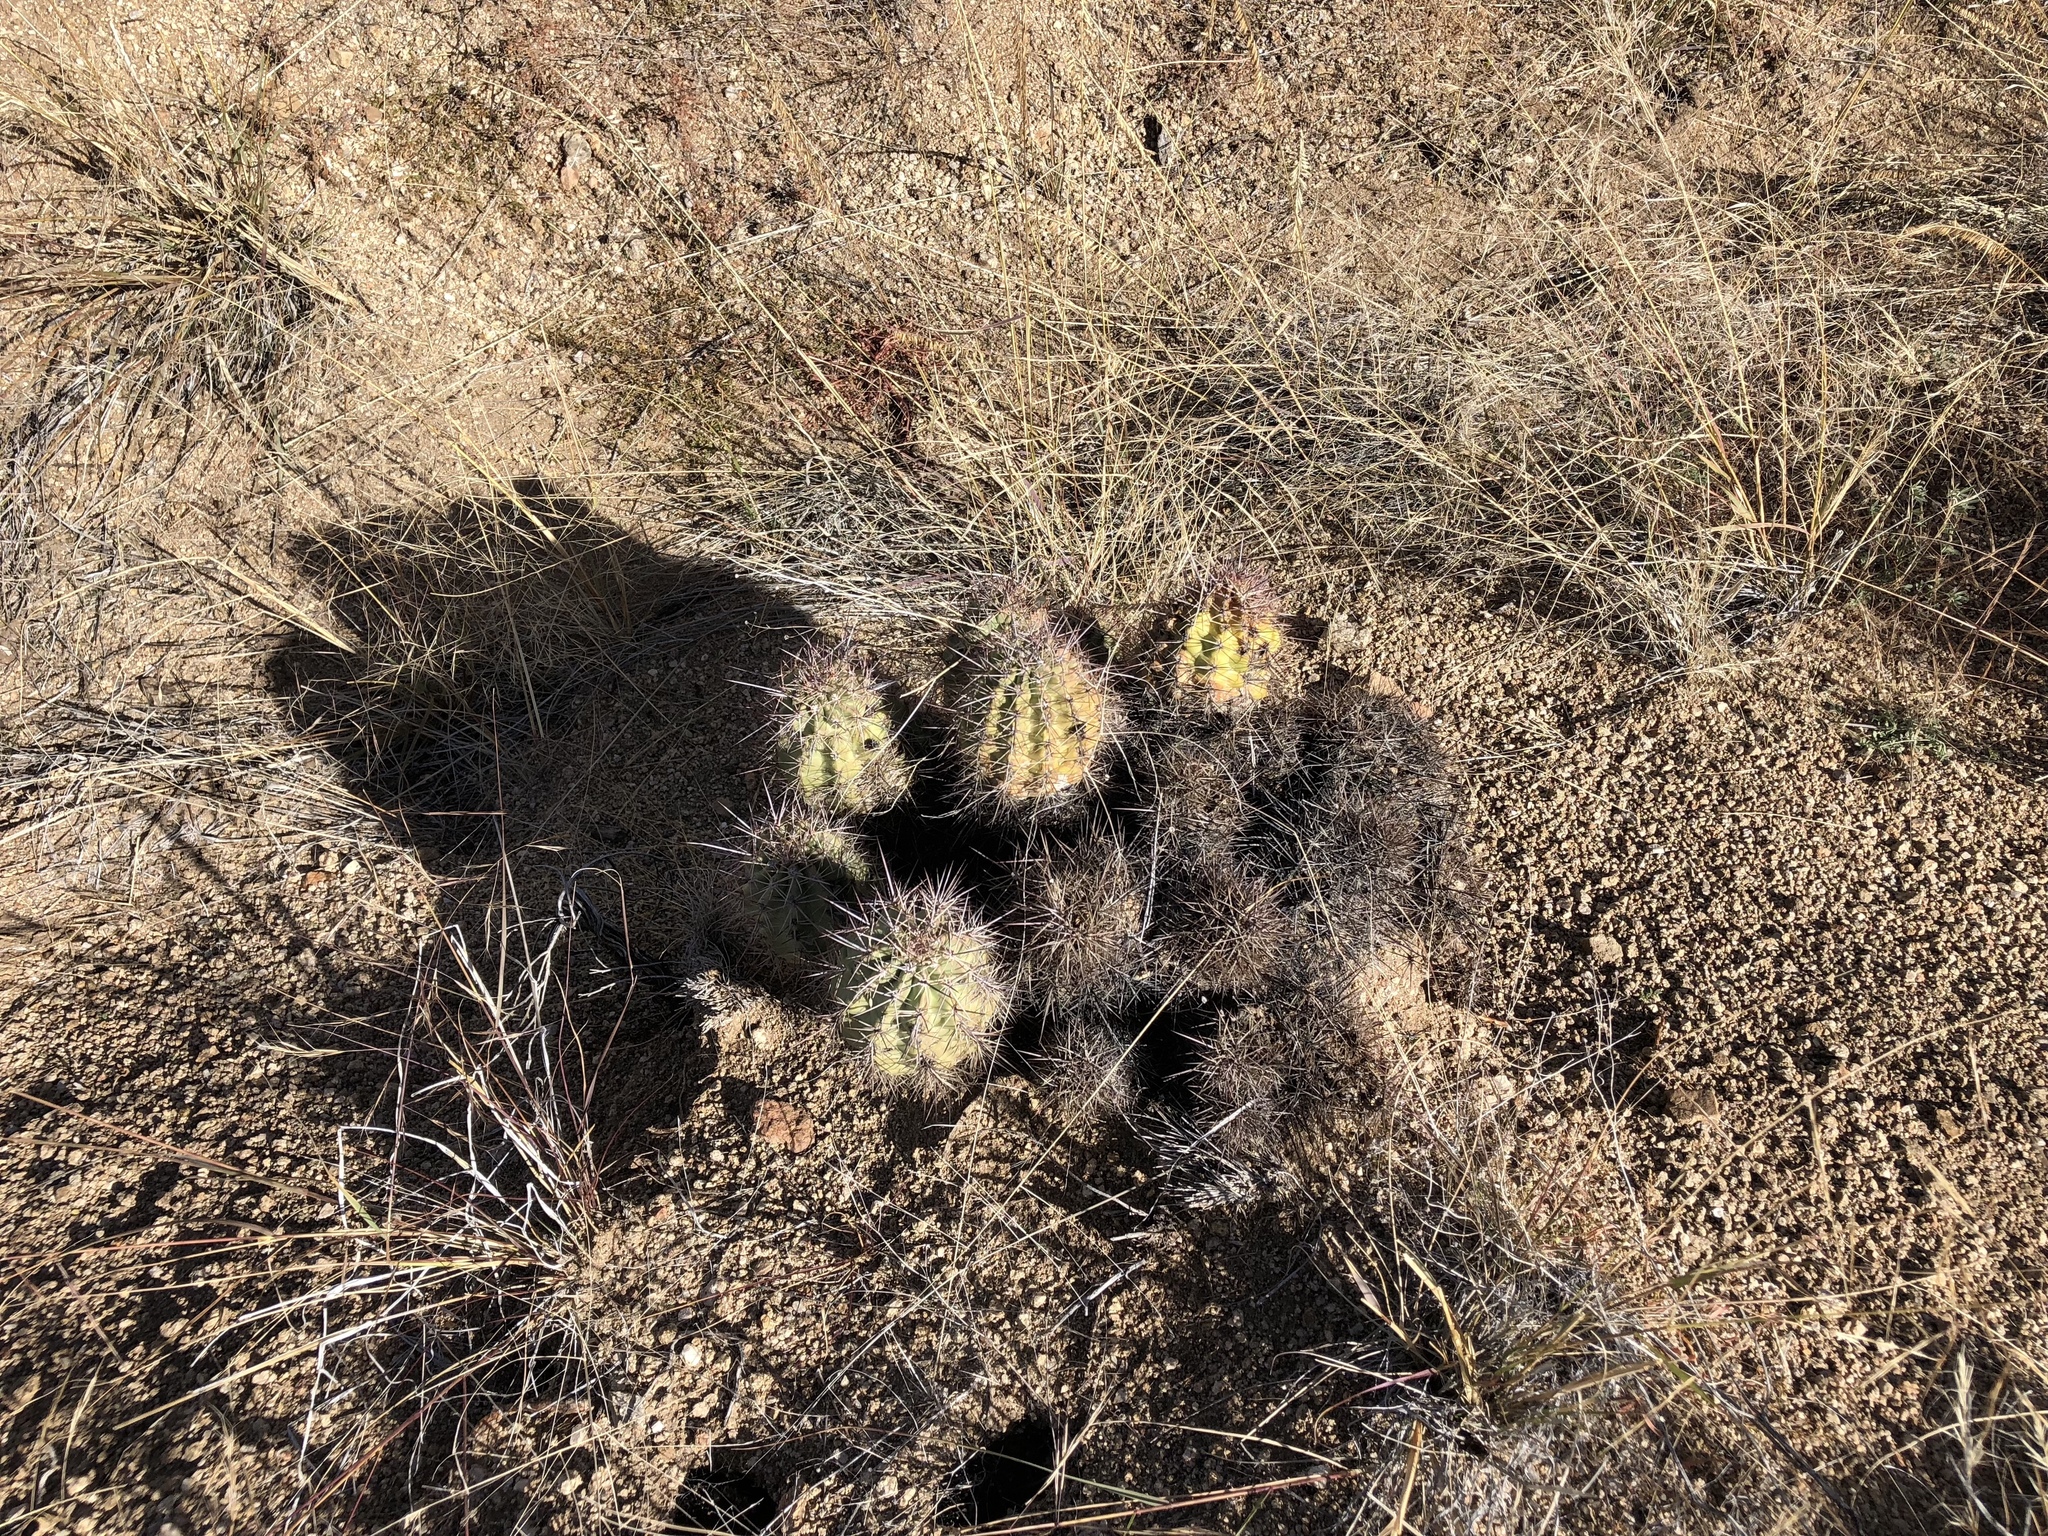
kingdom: Plantae
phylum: Tracheophyta
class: Magnoliopsida
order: Caryophyllales
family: Cactaceae
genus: Echinocereus
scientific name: Echinocereus coccineus
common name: Scarlet hedgehog cactus
